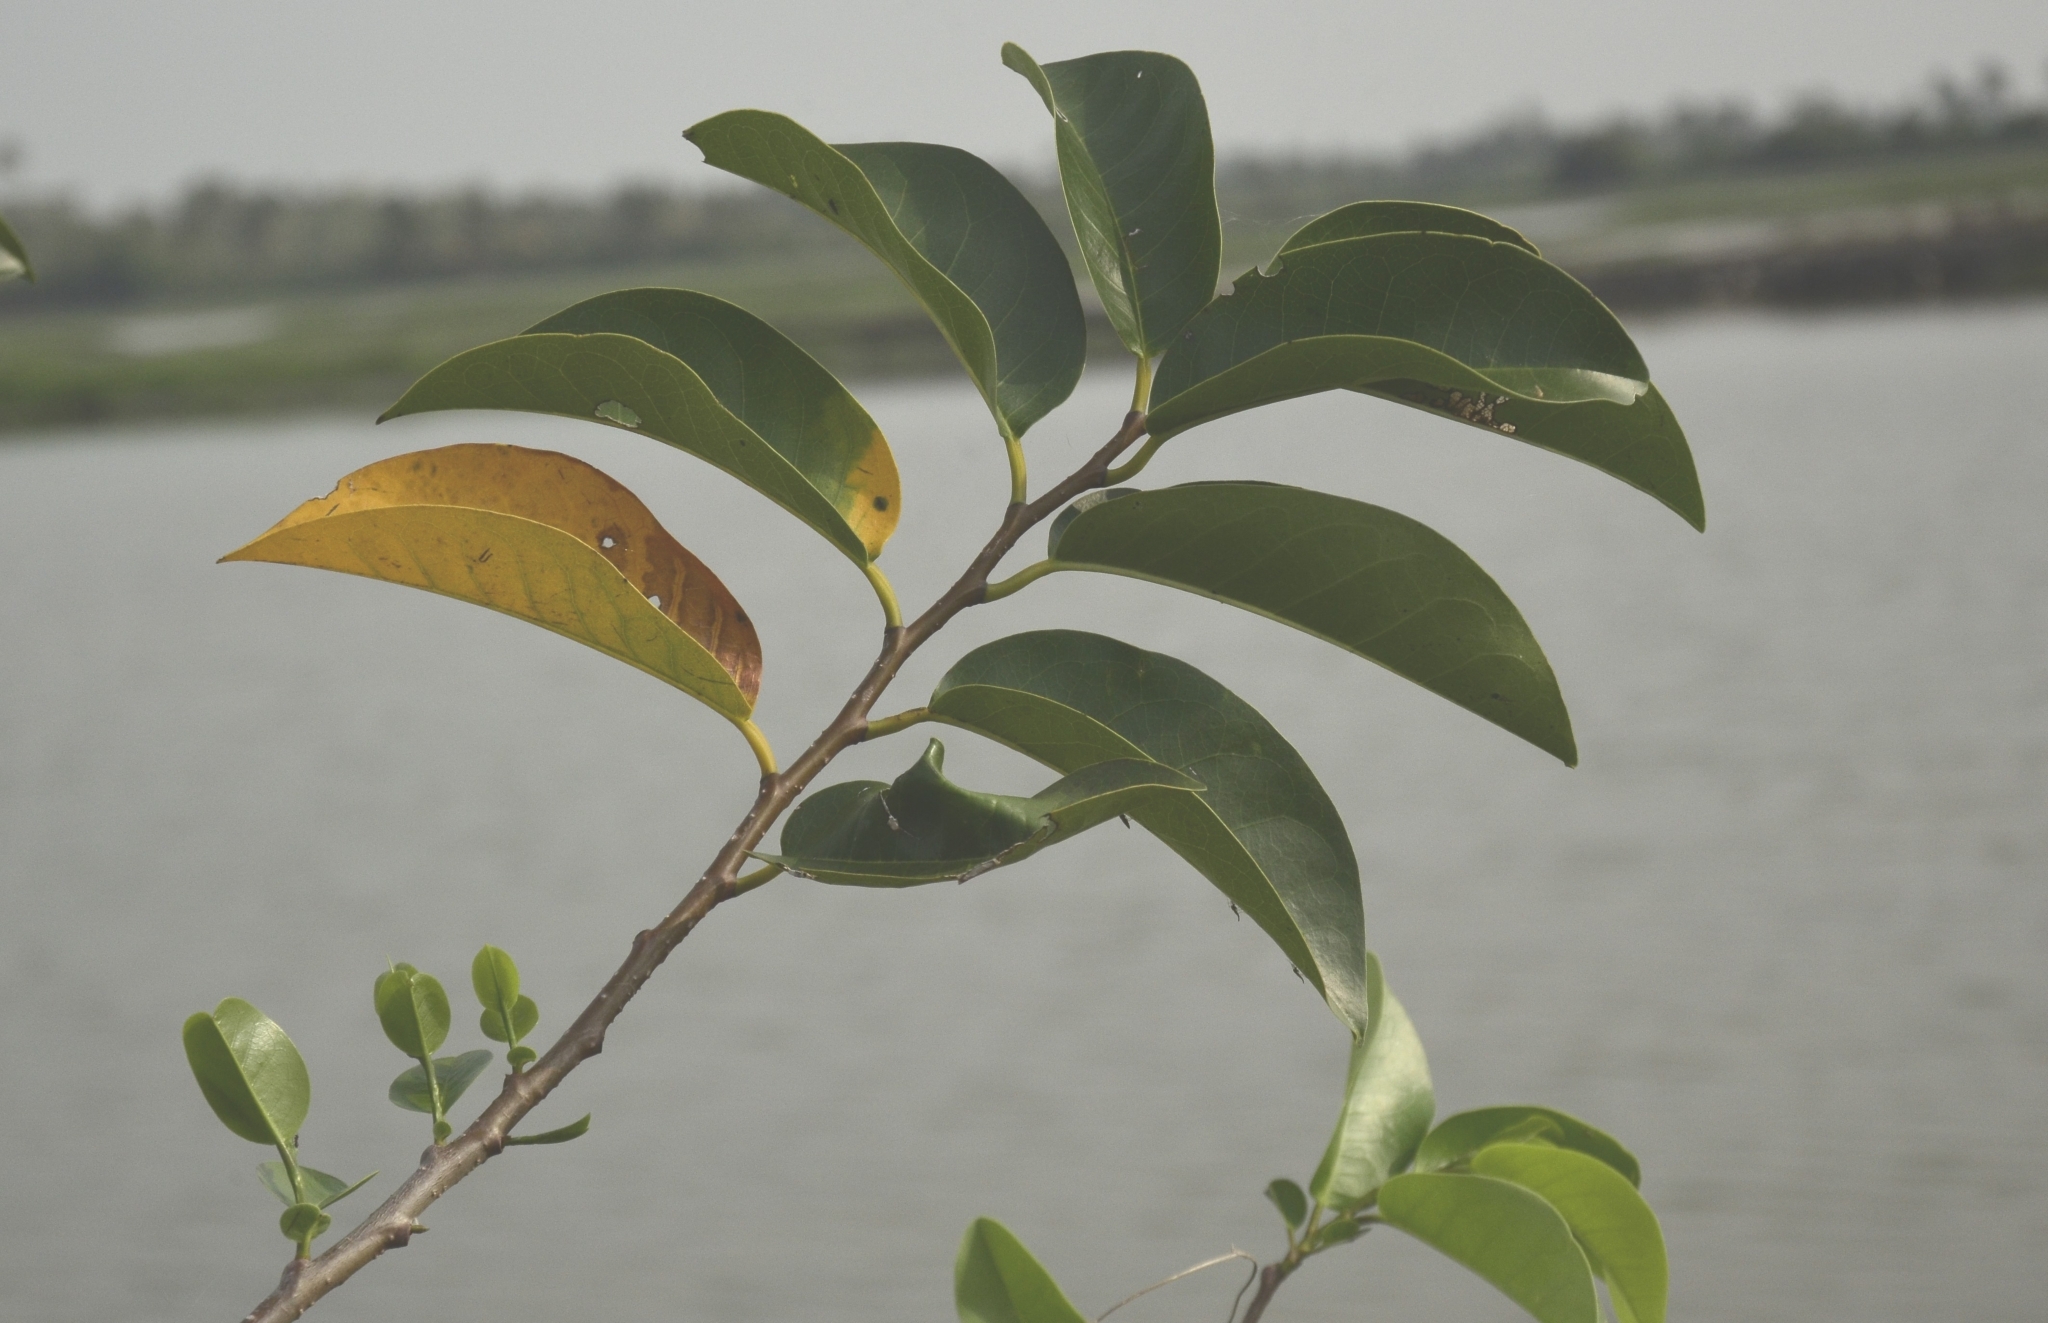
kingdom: Plantae
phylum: Tracheophyta
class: Magnoliopsida
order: Magnoliales
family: Annonaceae
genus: Annona
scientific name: Annona glabra
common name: Monkey apple
